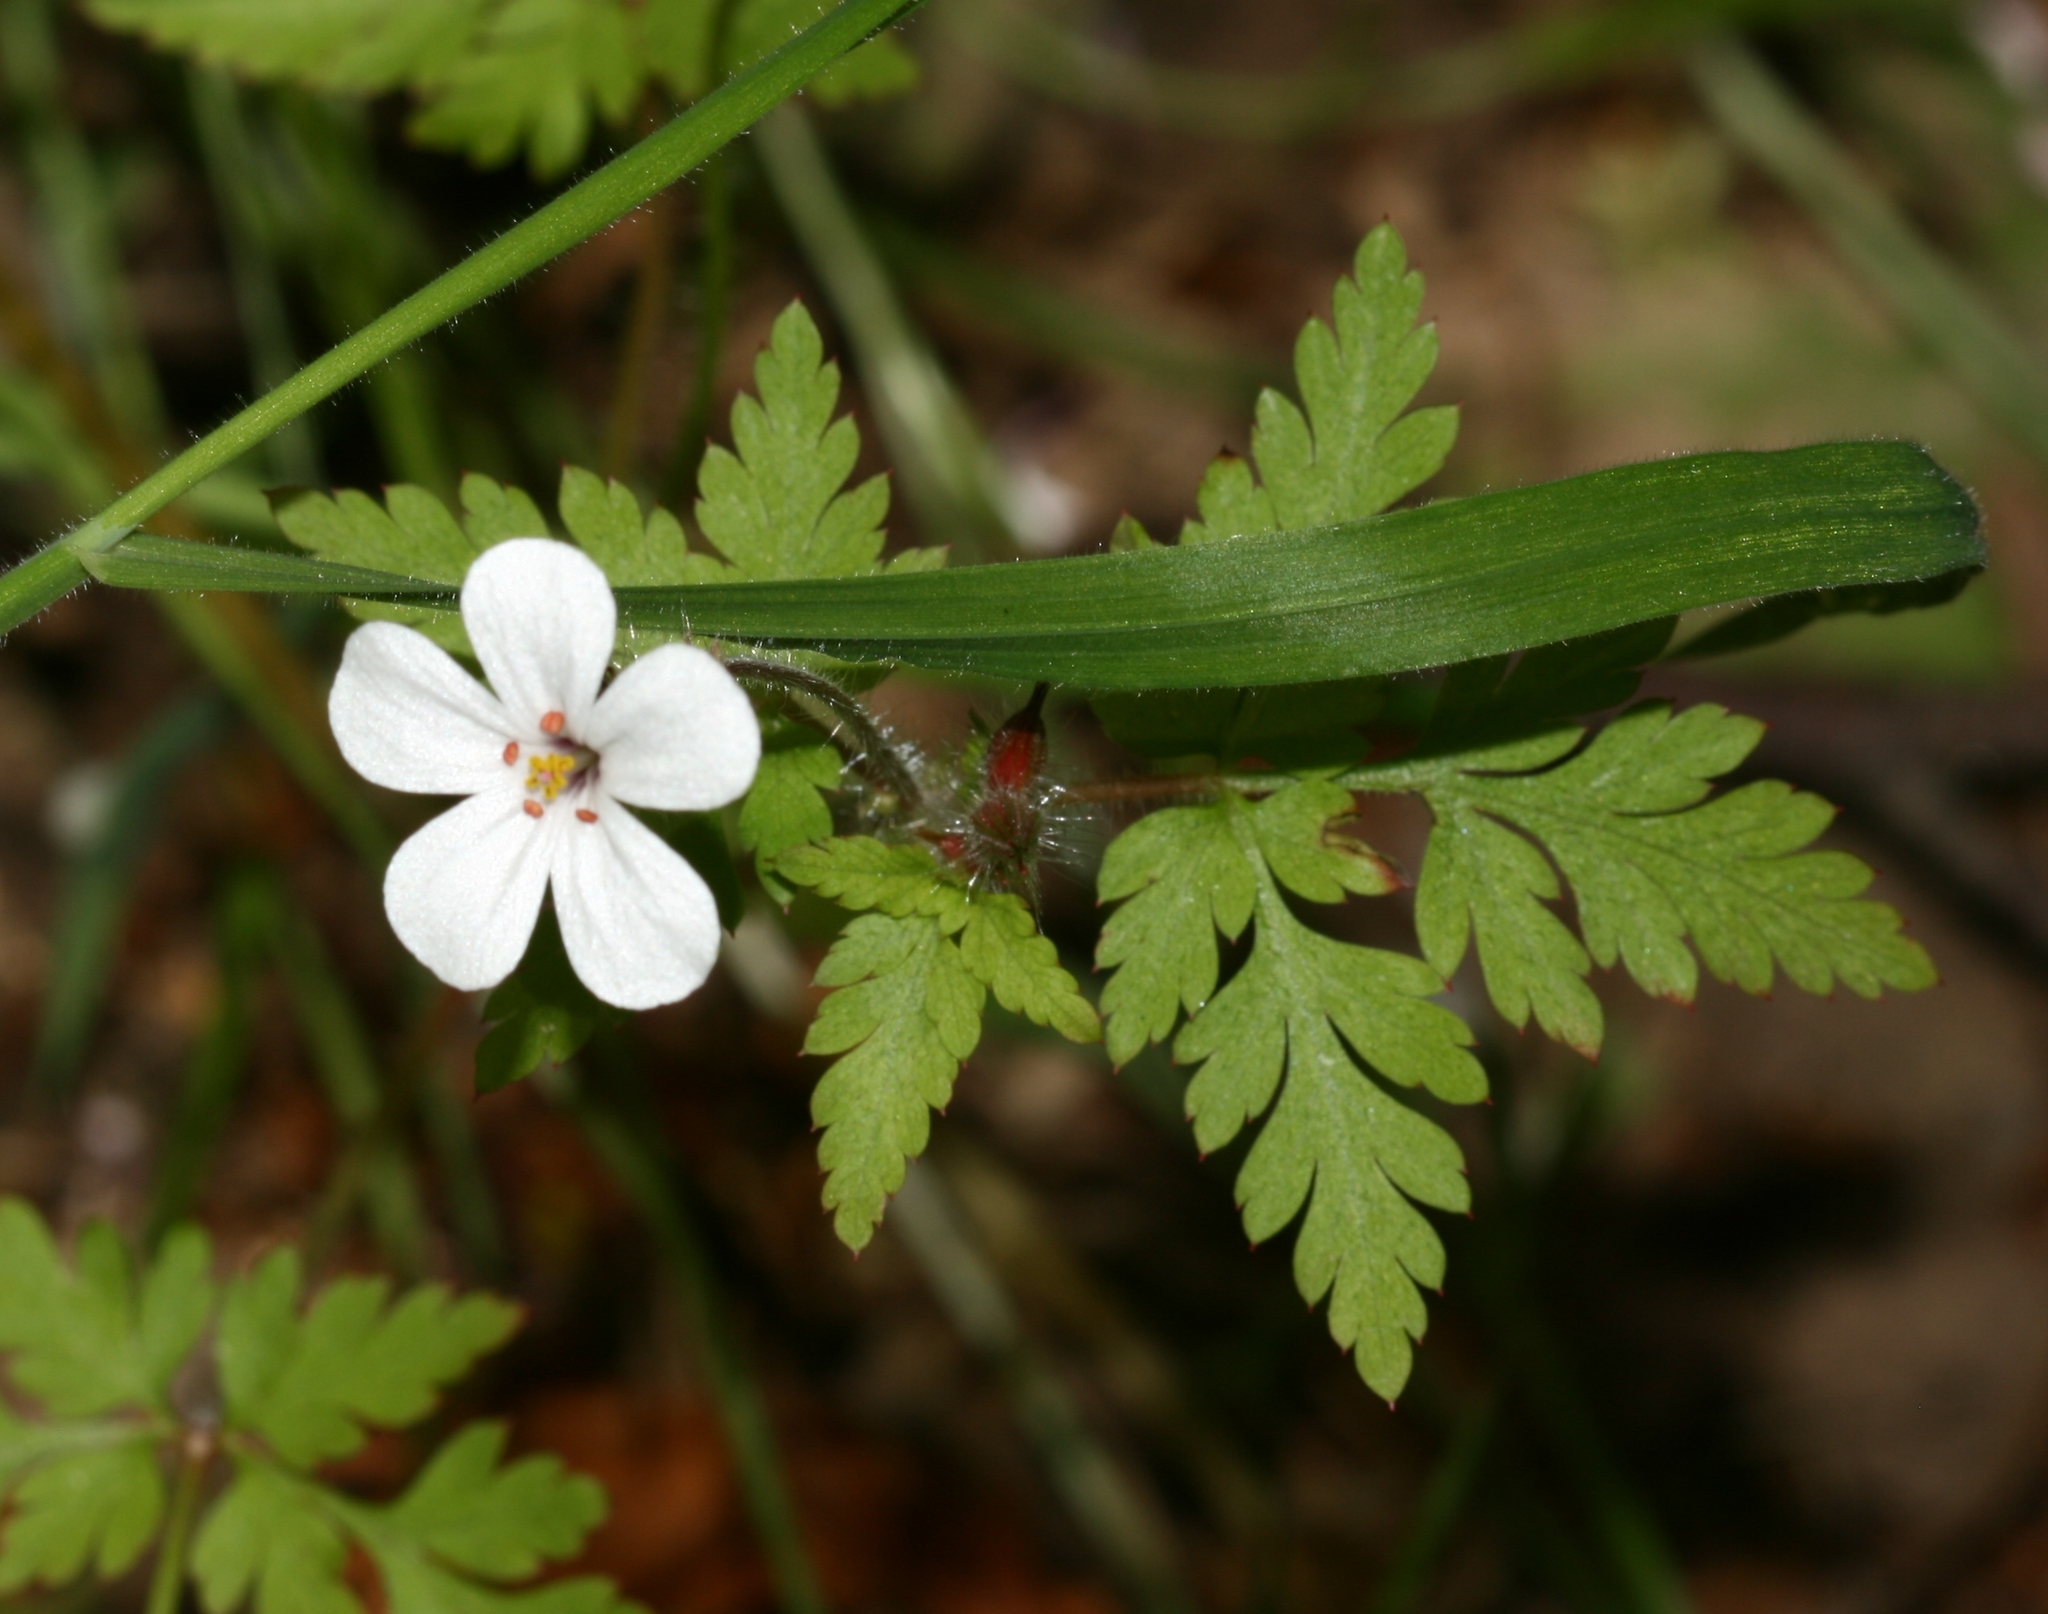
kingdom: Plantae
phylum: Tracheophyta
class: Magnoliopsida
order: Geraniales
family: Geraniaceae
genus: Geranium
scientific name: Geranium robertianum
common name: Herb-robert
